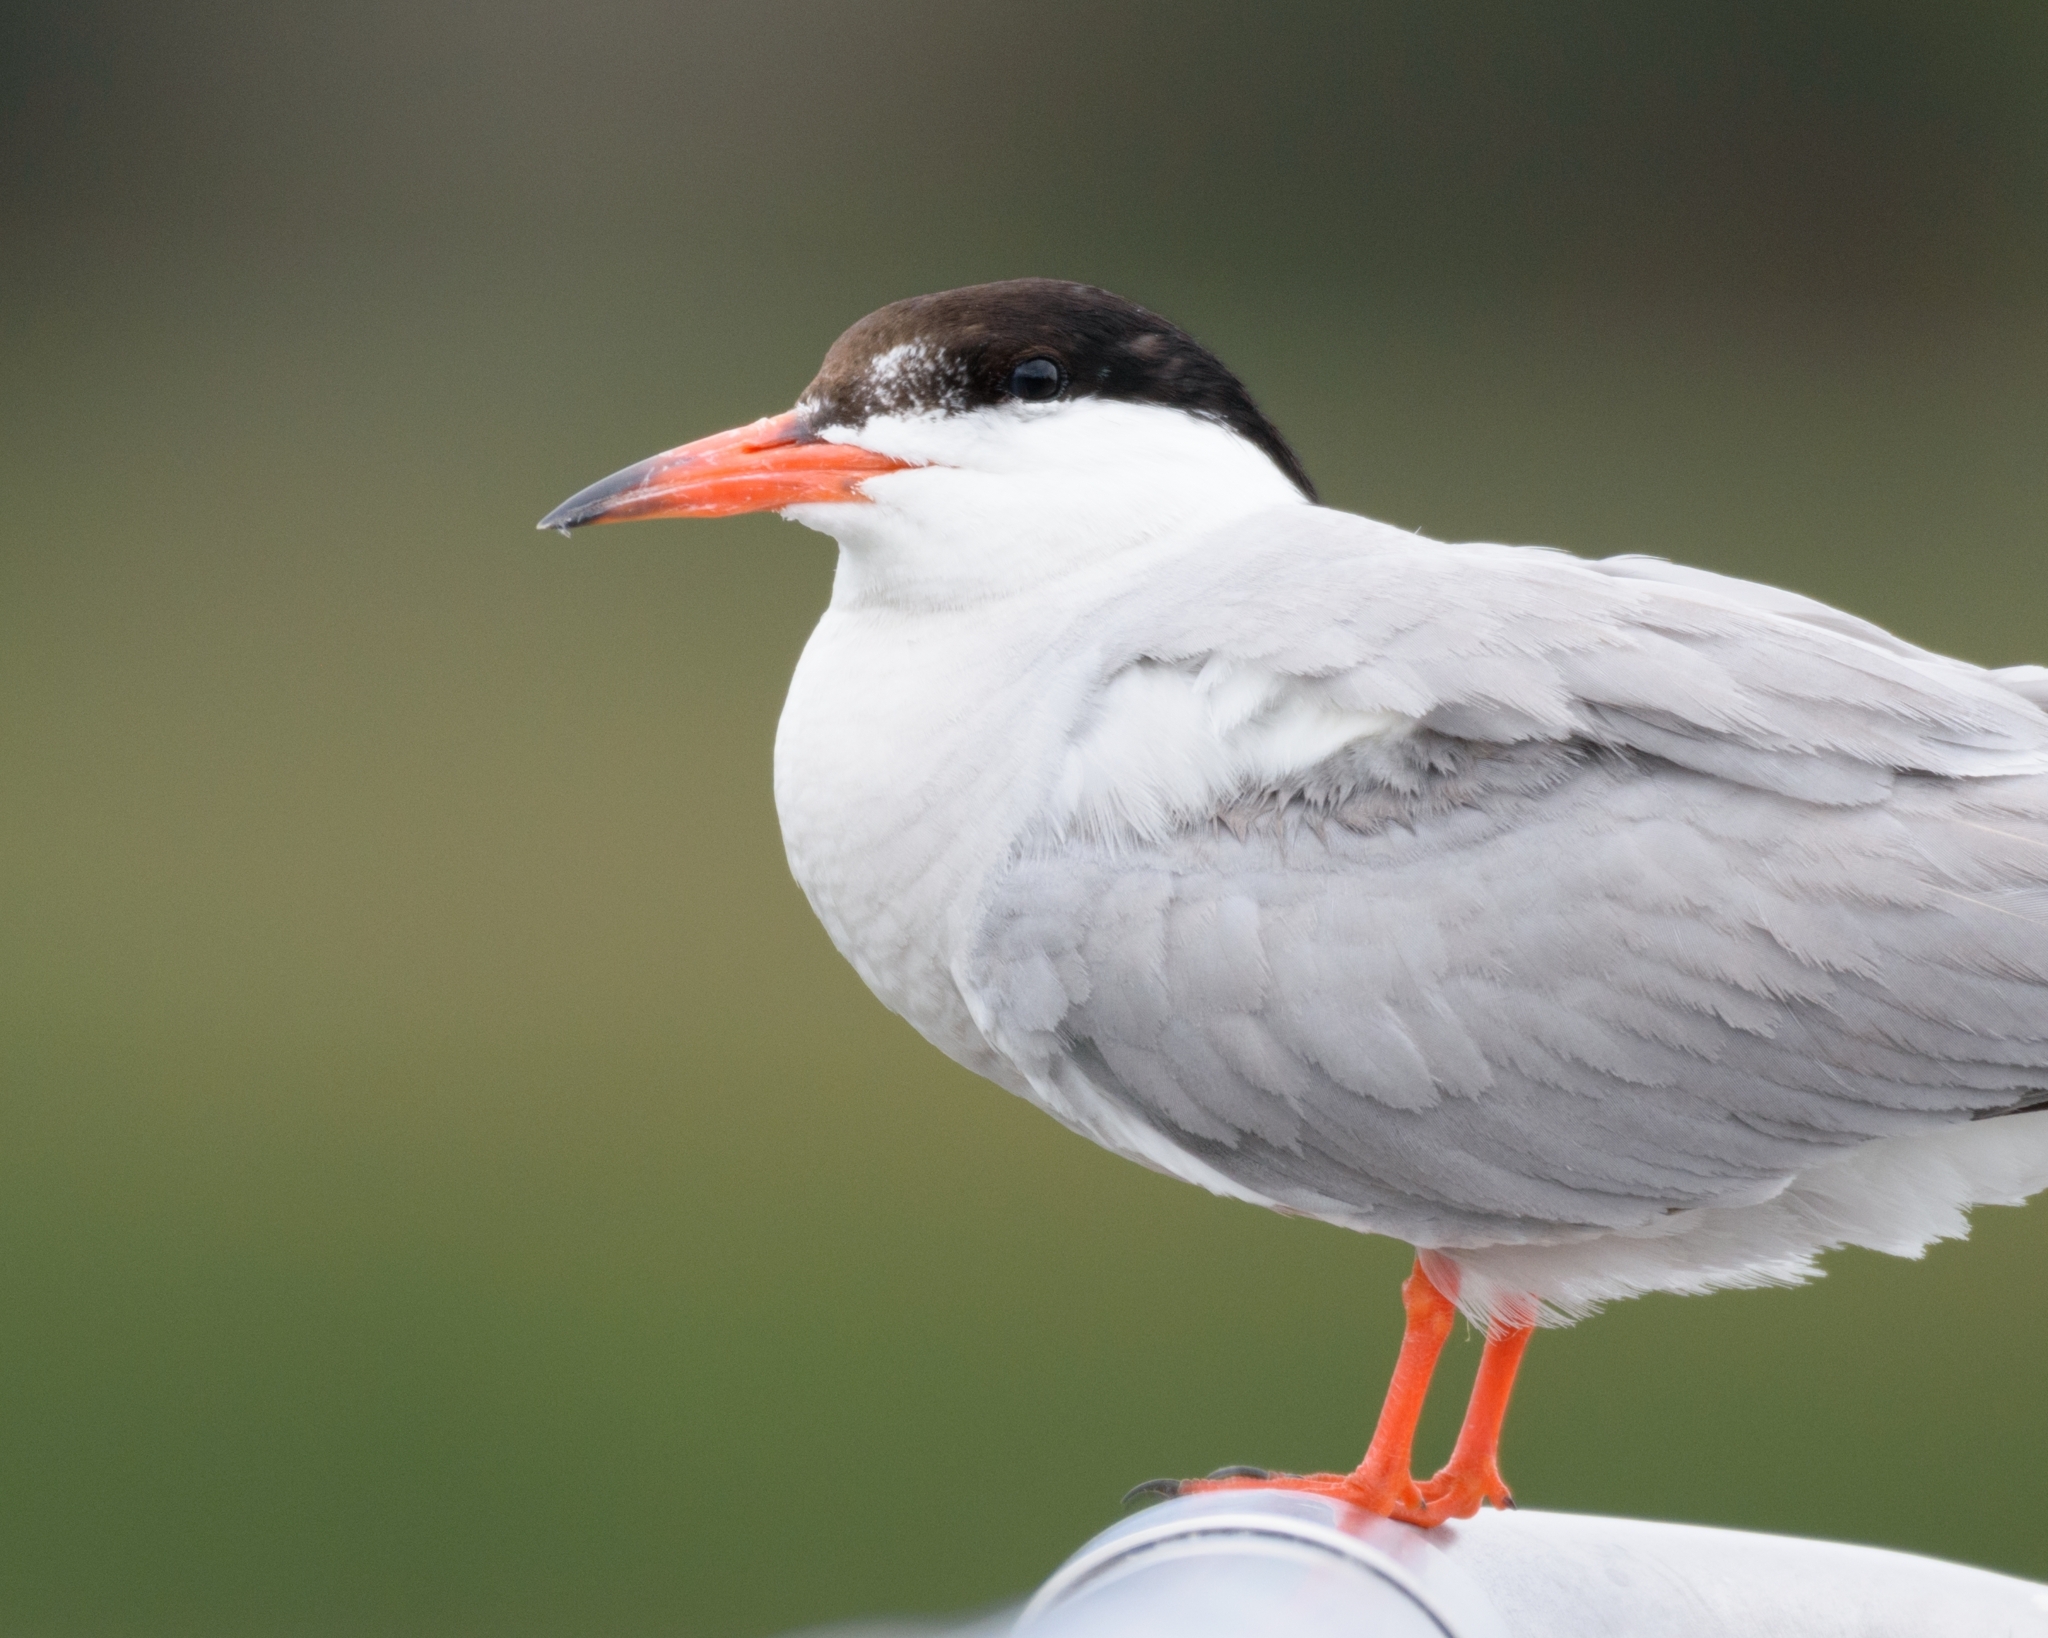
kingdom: Animalia
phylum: Chordata
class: Aves
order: Charadriiformes
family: Laridae
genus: Sterna
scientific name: Sterna hirundo
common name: Common tern
